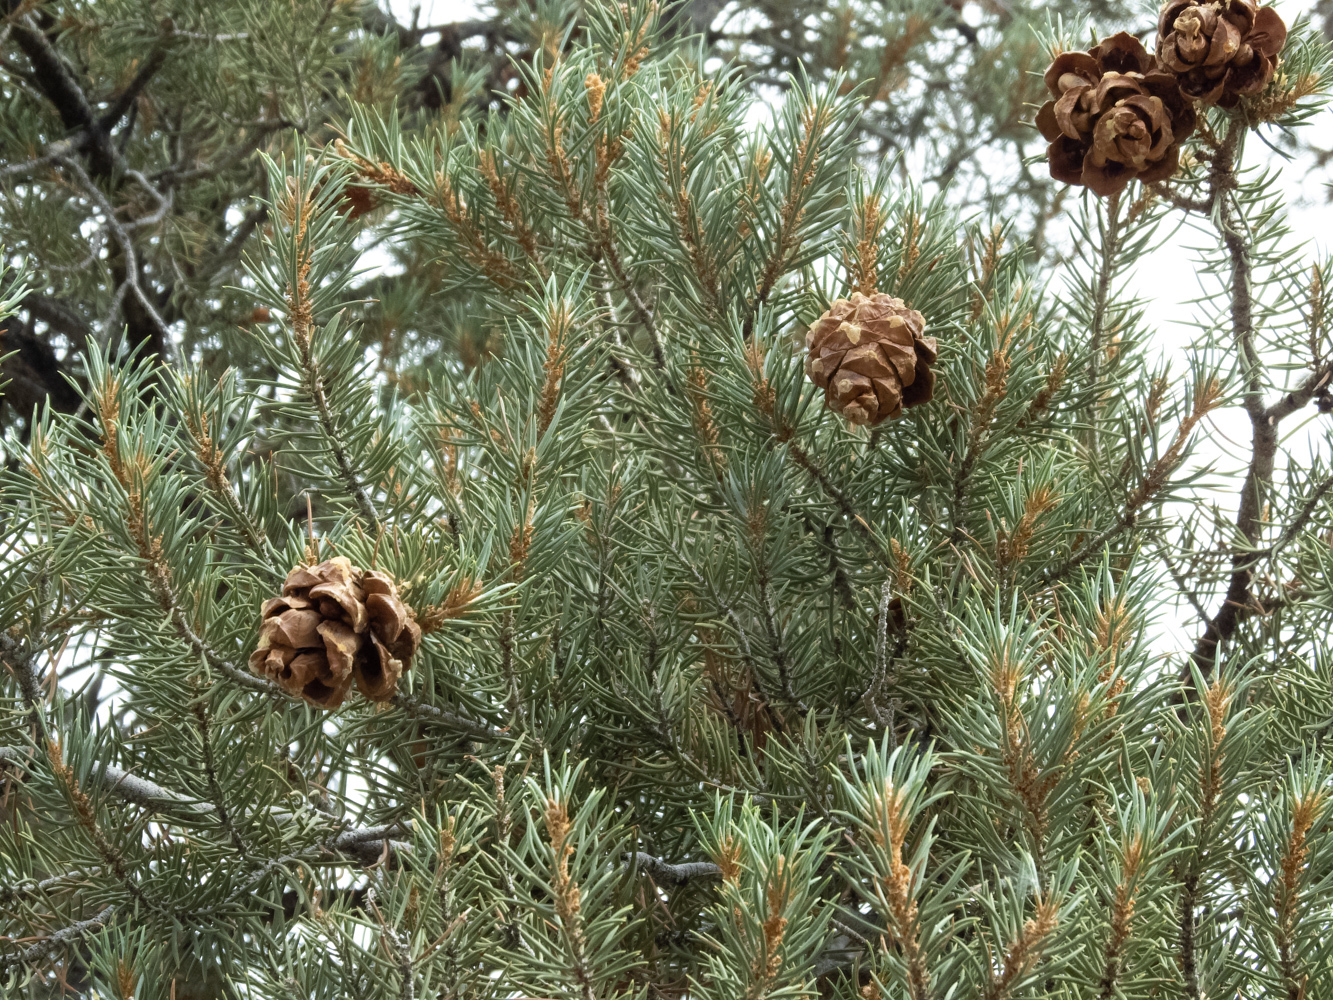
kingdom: Plantae
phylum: Tracheophyta
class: Pinopsida
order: Pinales
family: Pinaceae
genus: Pinus
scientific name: Pinus monophylla
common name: One-leaved nut pine
